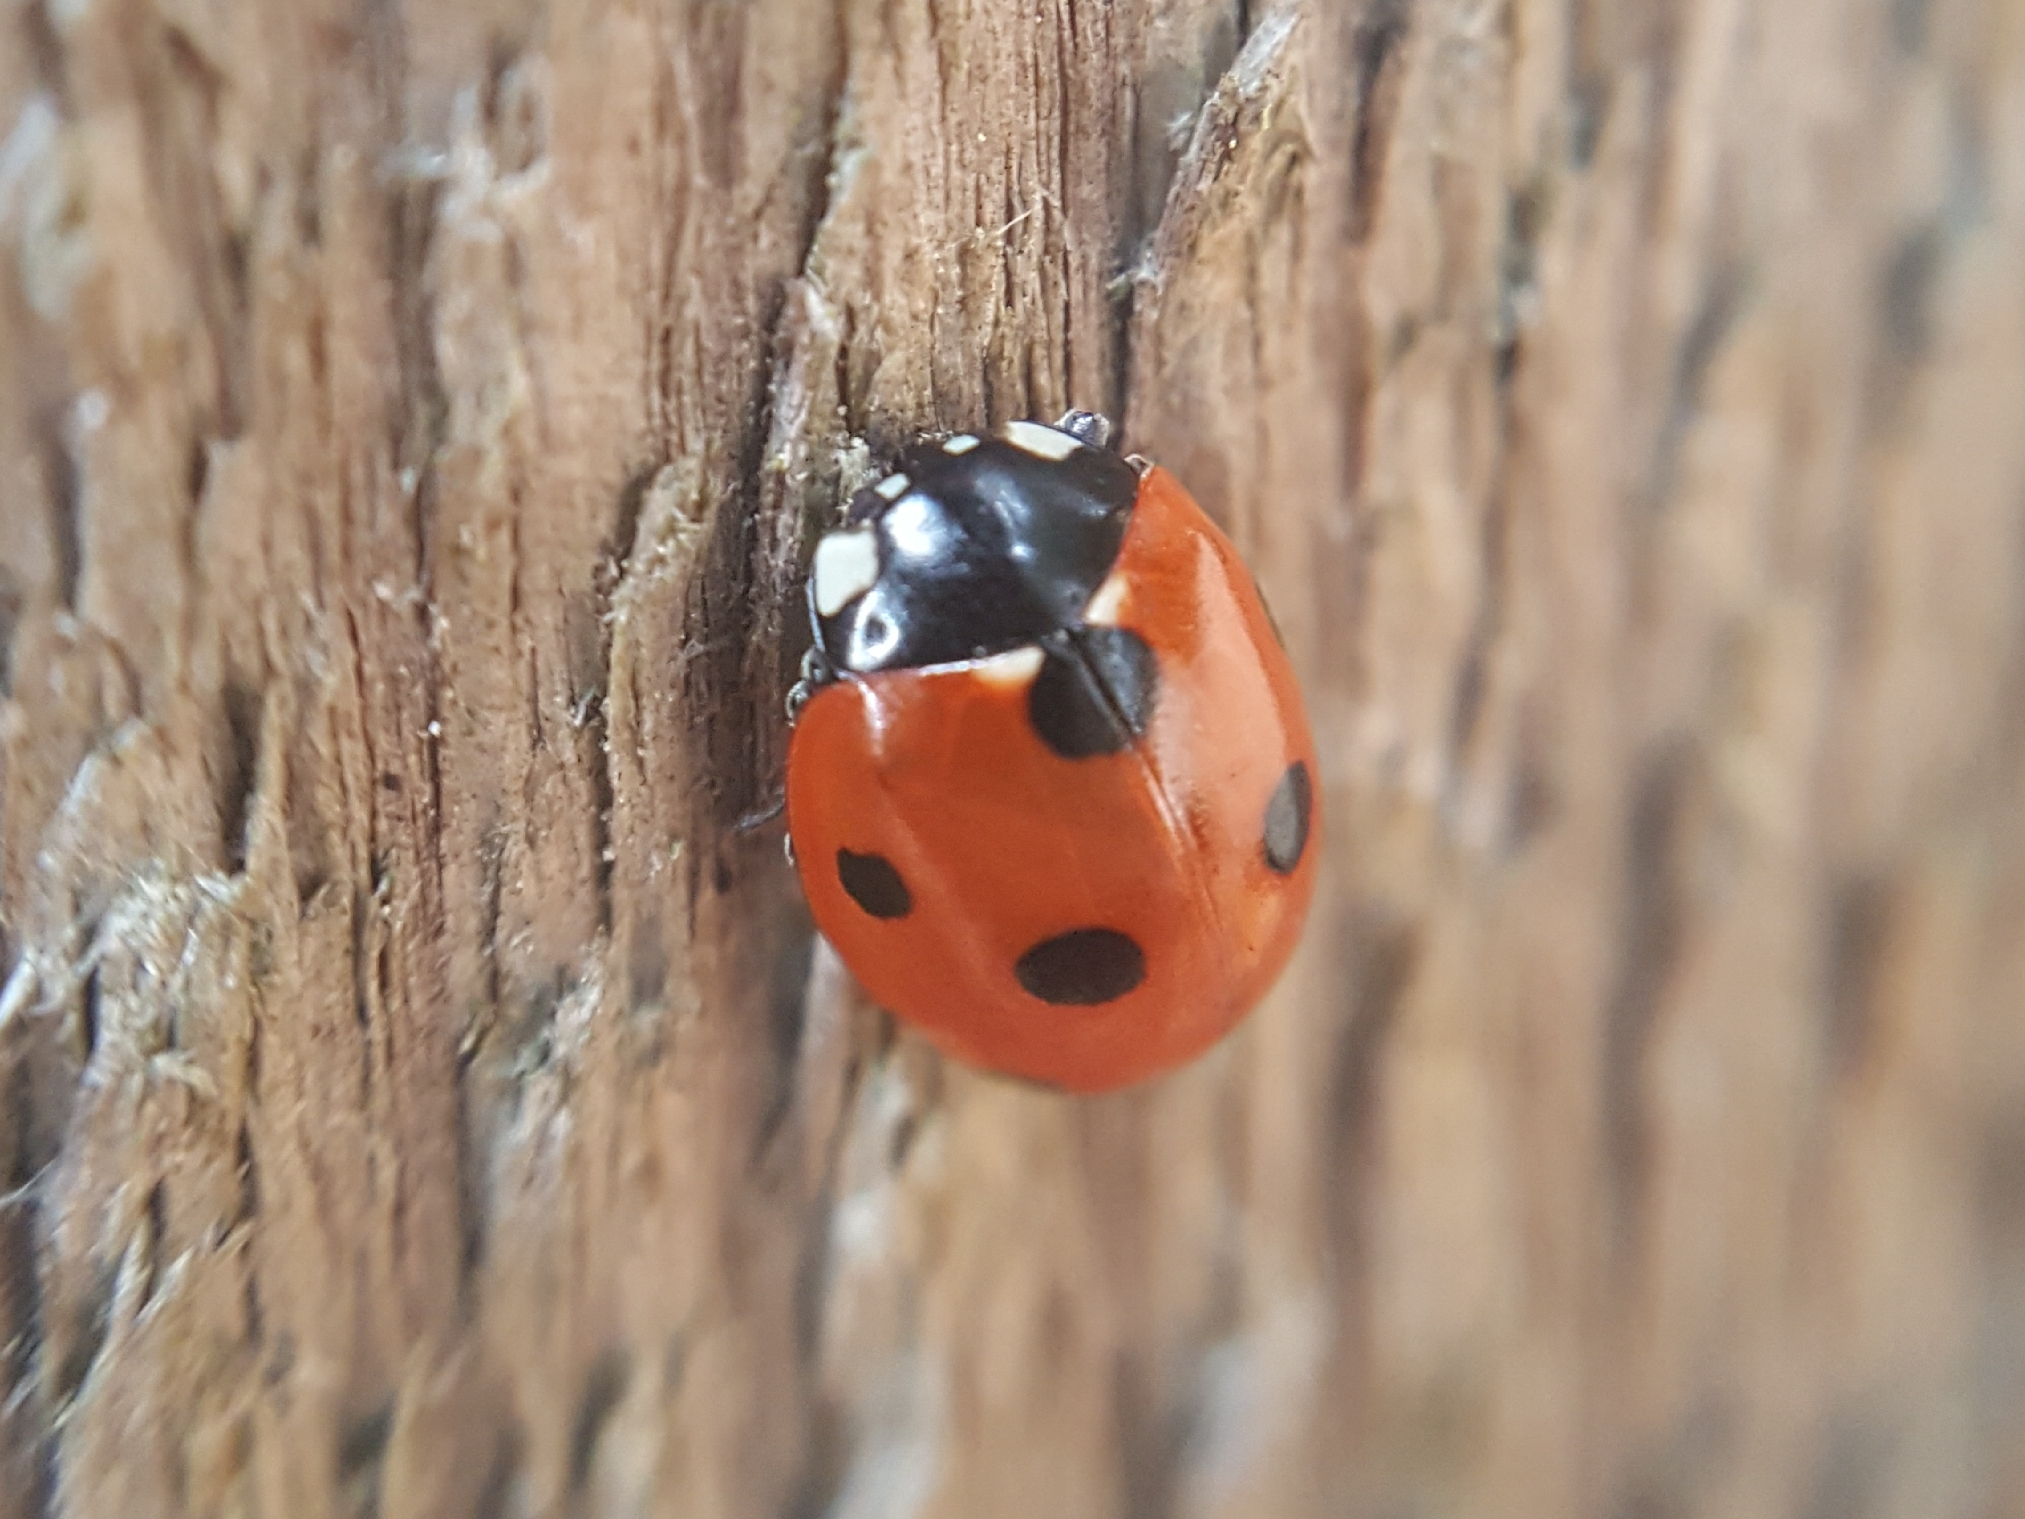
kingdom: Animalia
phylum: Arthropoda
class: Insecta
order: Coleoptera
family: Coccinellidae
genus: Coccinella
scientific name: Coccinella septempunctata
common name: Sevenspotted lady beetle
